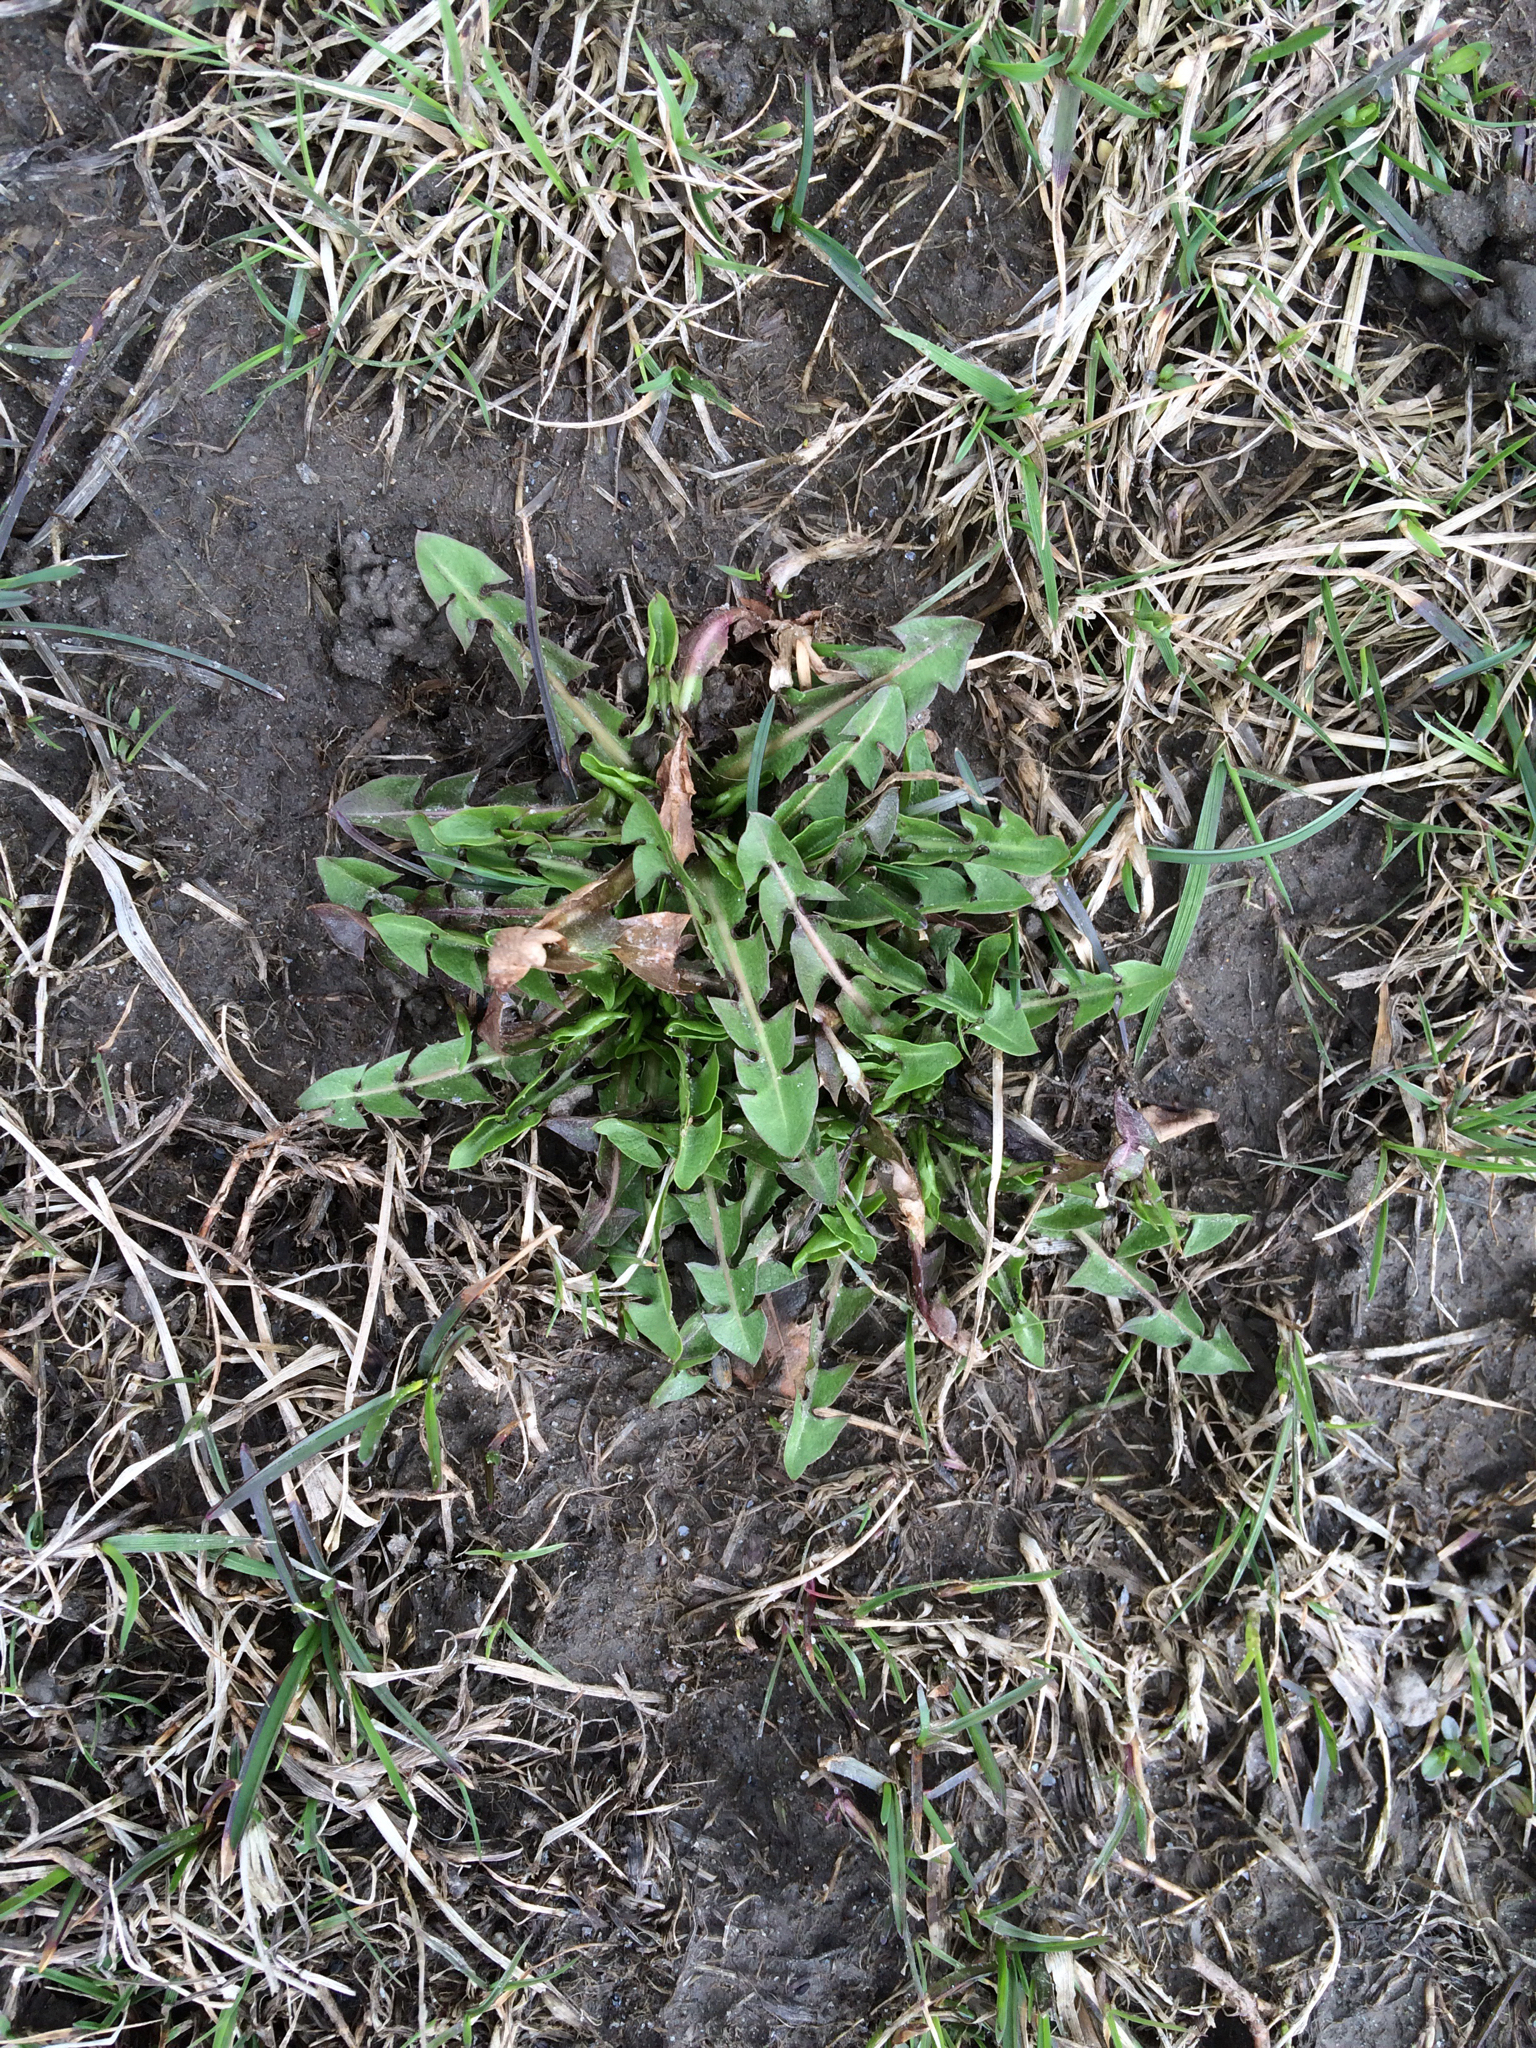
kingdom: Plantae
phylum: Tracheophyta
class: Magnoliopsida
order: Asterales
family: Asteraceae
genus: Taraxacum
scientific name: Taraxacum officinale
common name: Common dandelion
